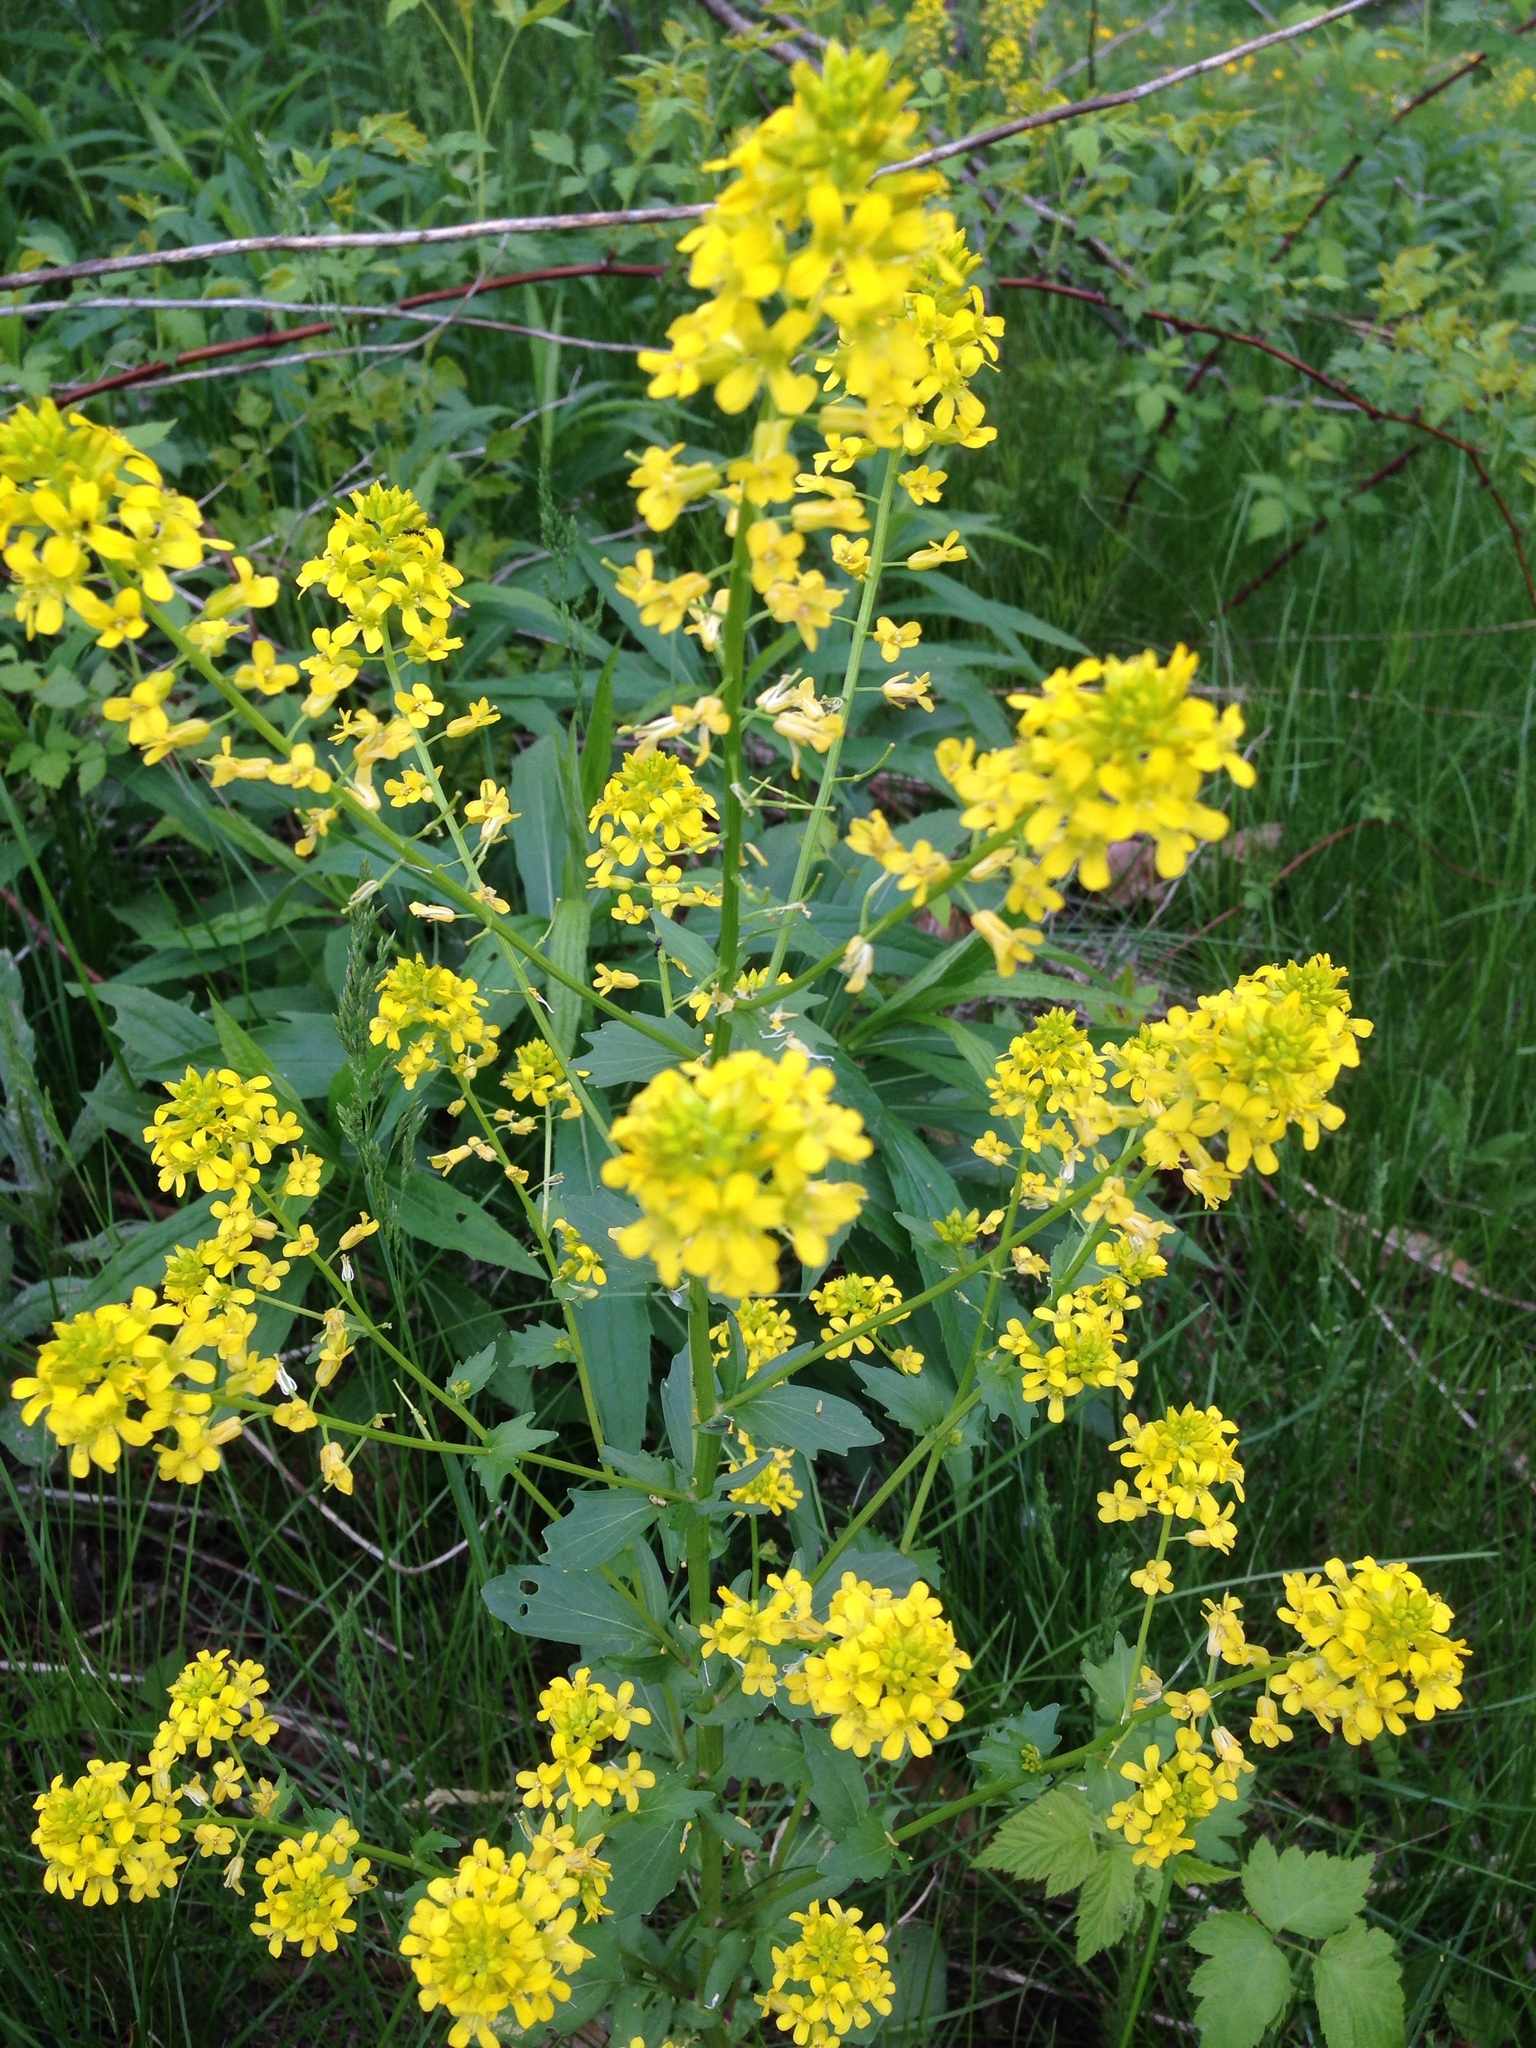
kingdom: Plantae
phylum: Tracheophyta
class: Magnoliopsida
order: Brassicales
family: Brassicaceae
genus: Barbarea
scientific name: Barbarea vulgaris
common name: Cressy-greens
